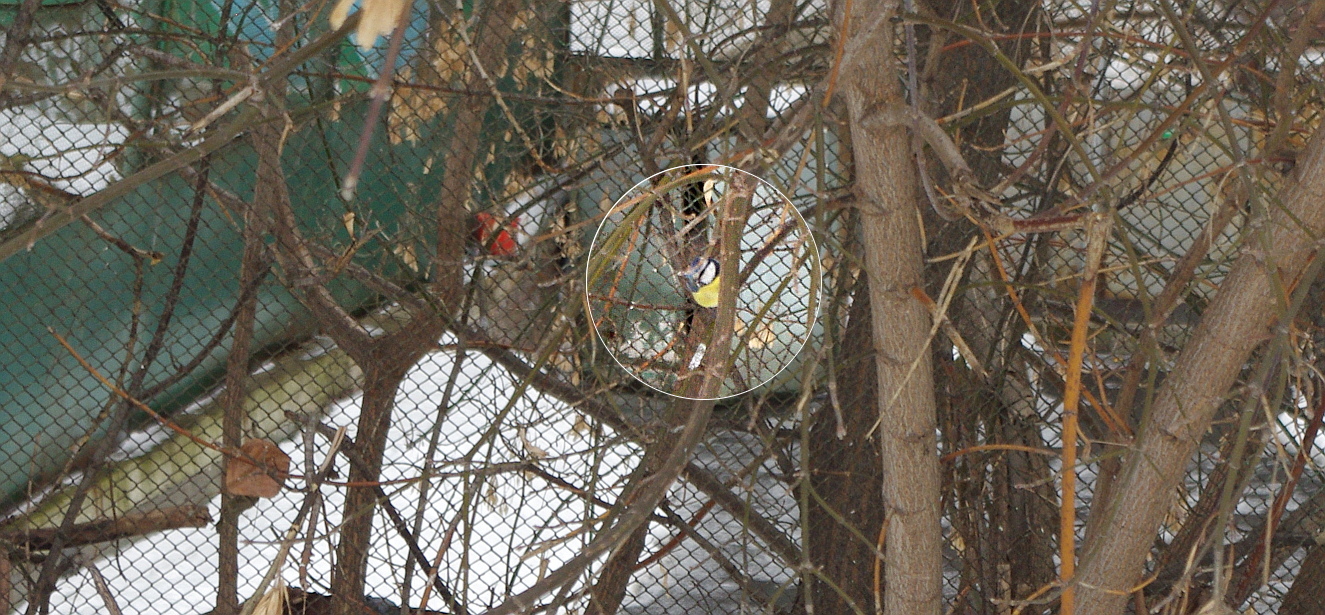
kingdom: Animalia
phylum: Chordata
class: Aves
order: Passeriformes
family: Paridae
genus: Cyanistes
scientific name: Cyanistes caeruleus
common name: Eurasian blue tit
